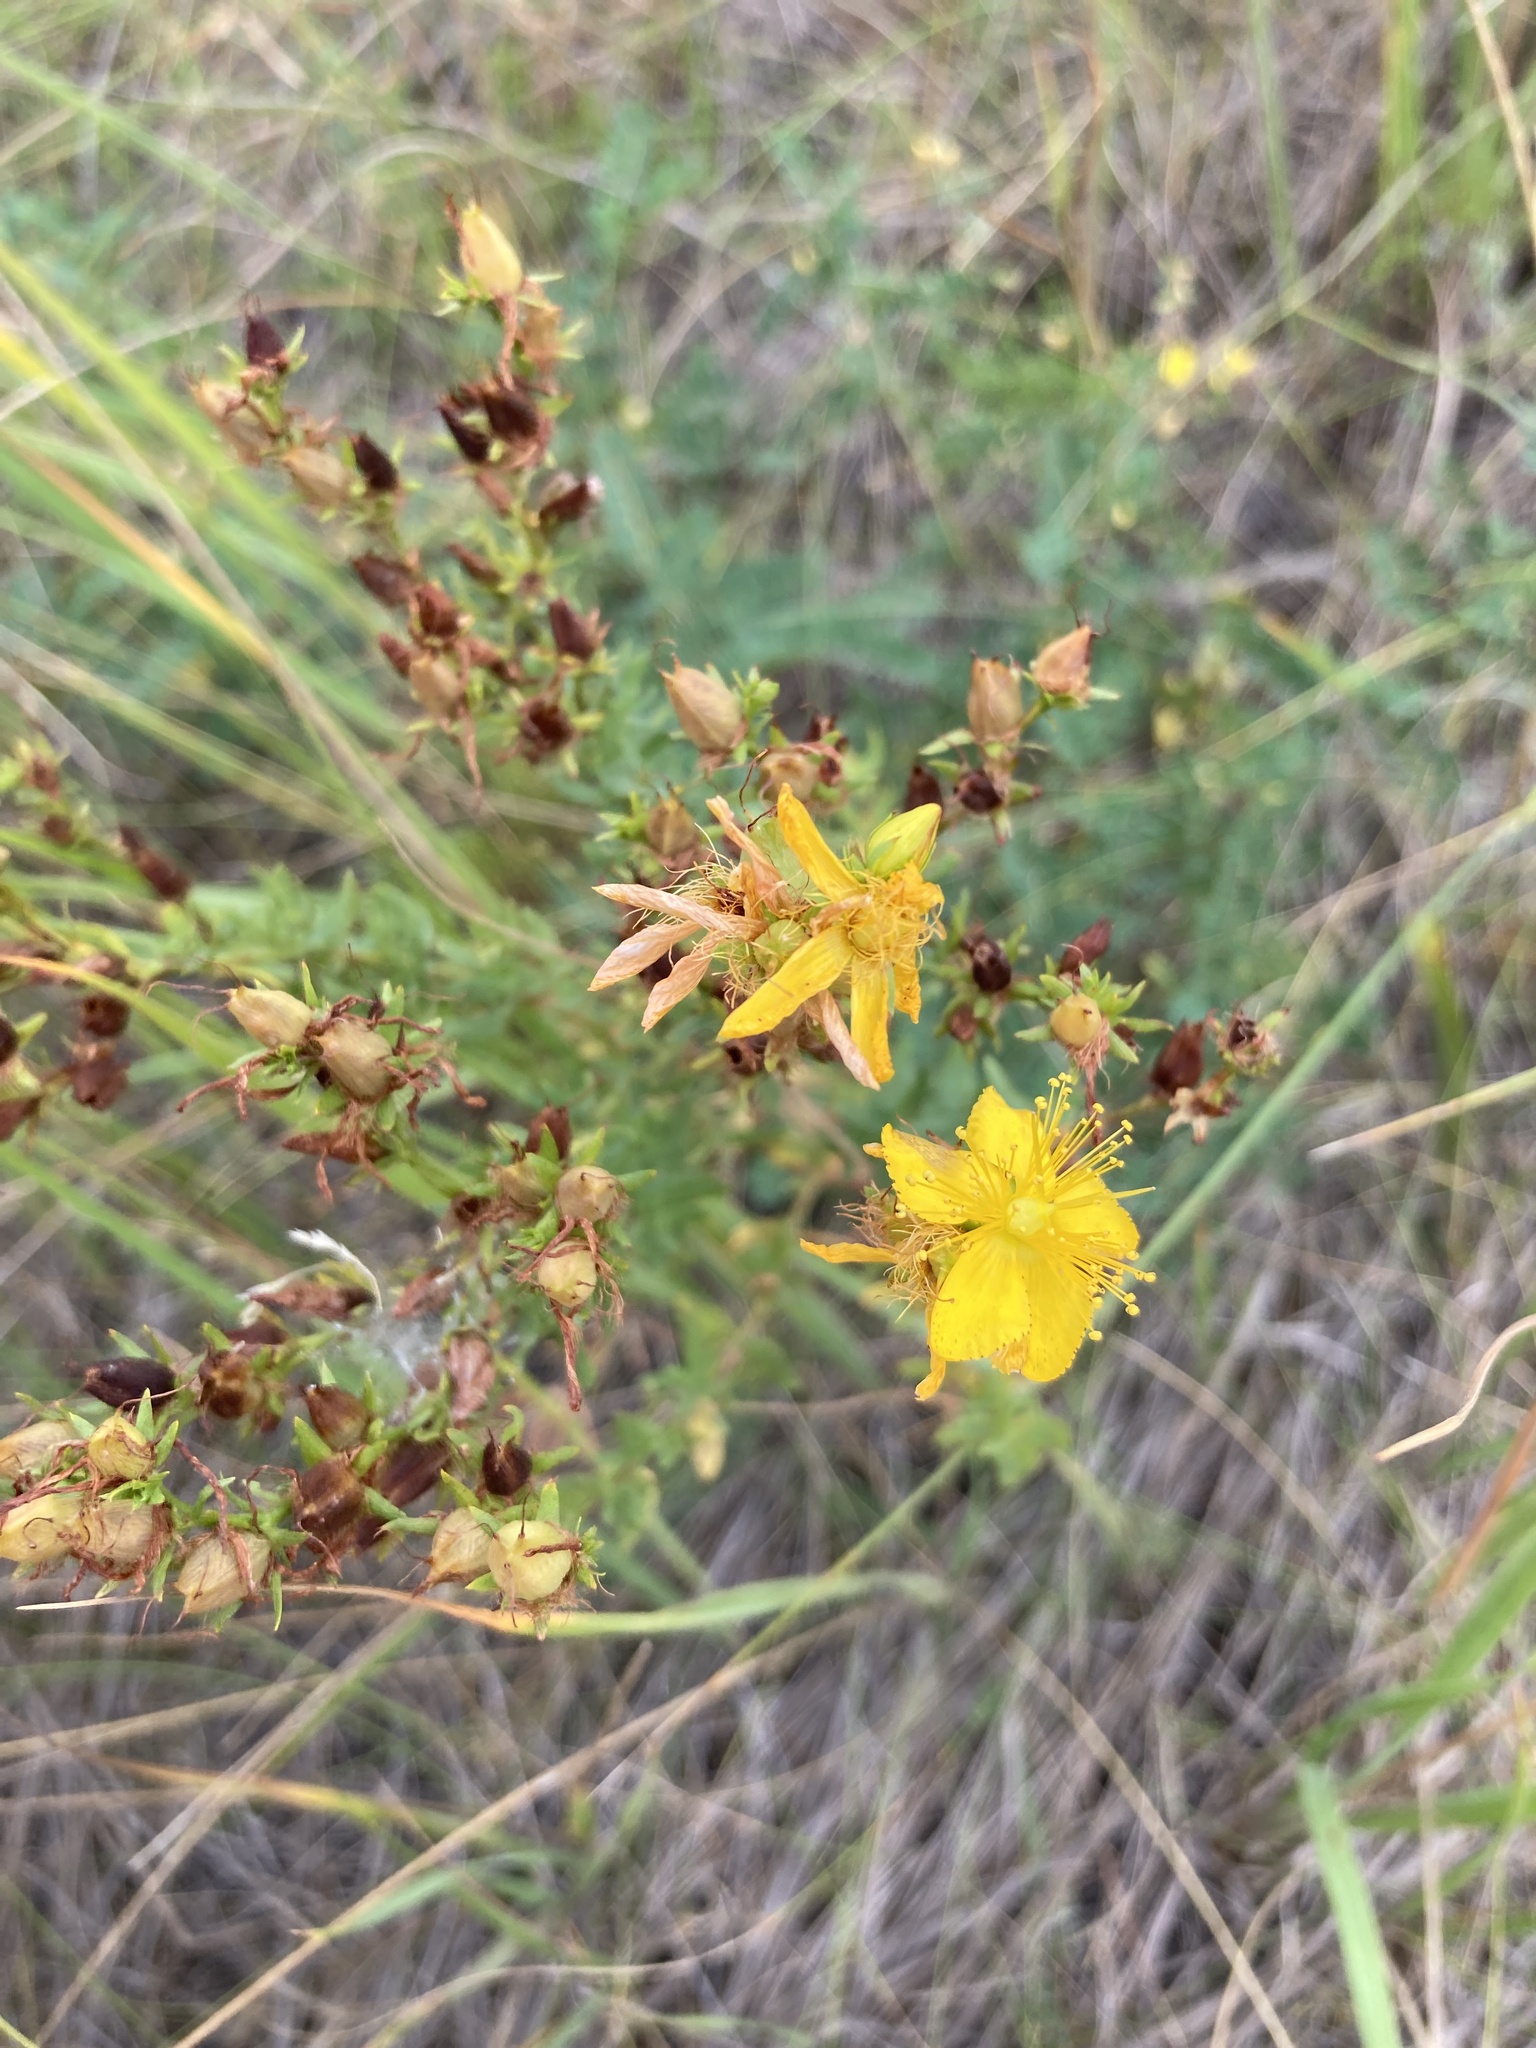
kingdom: Plantae
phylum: Tracheophyta
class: Magnoliopsida
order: Malpighiales
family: Hypericaceae
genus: Hypericum
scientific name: Hypericum perforatum
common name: Common st. johnswort
